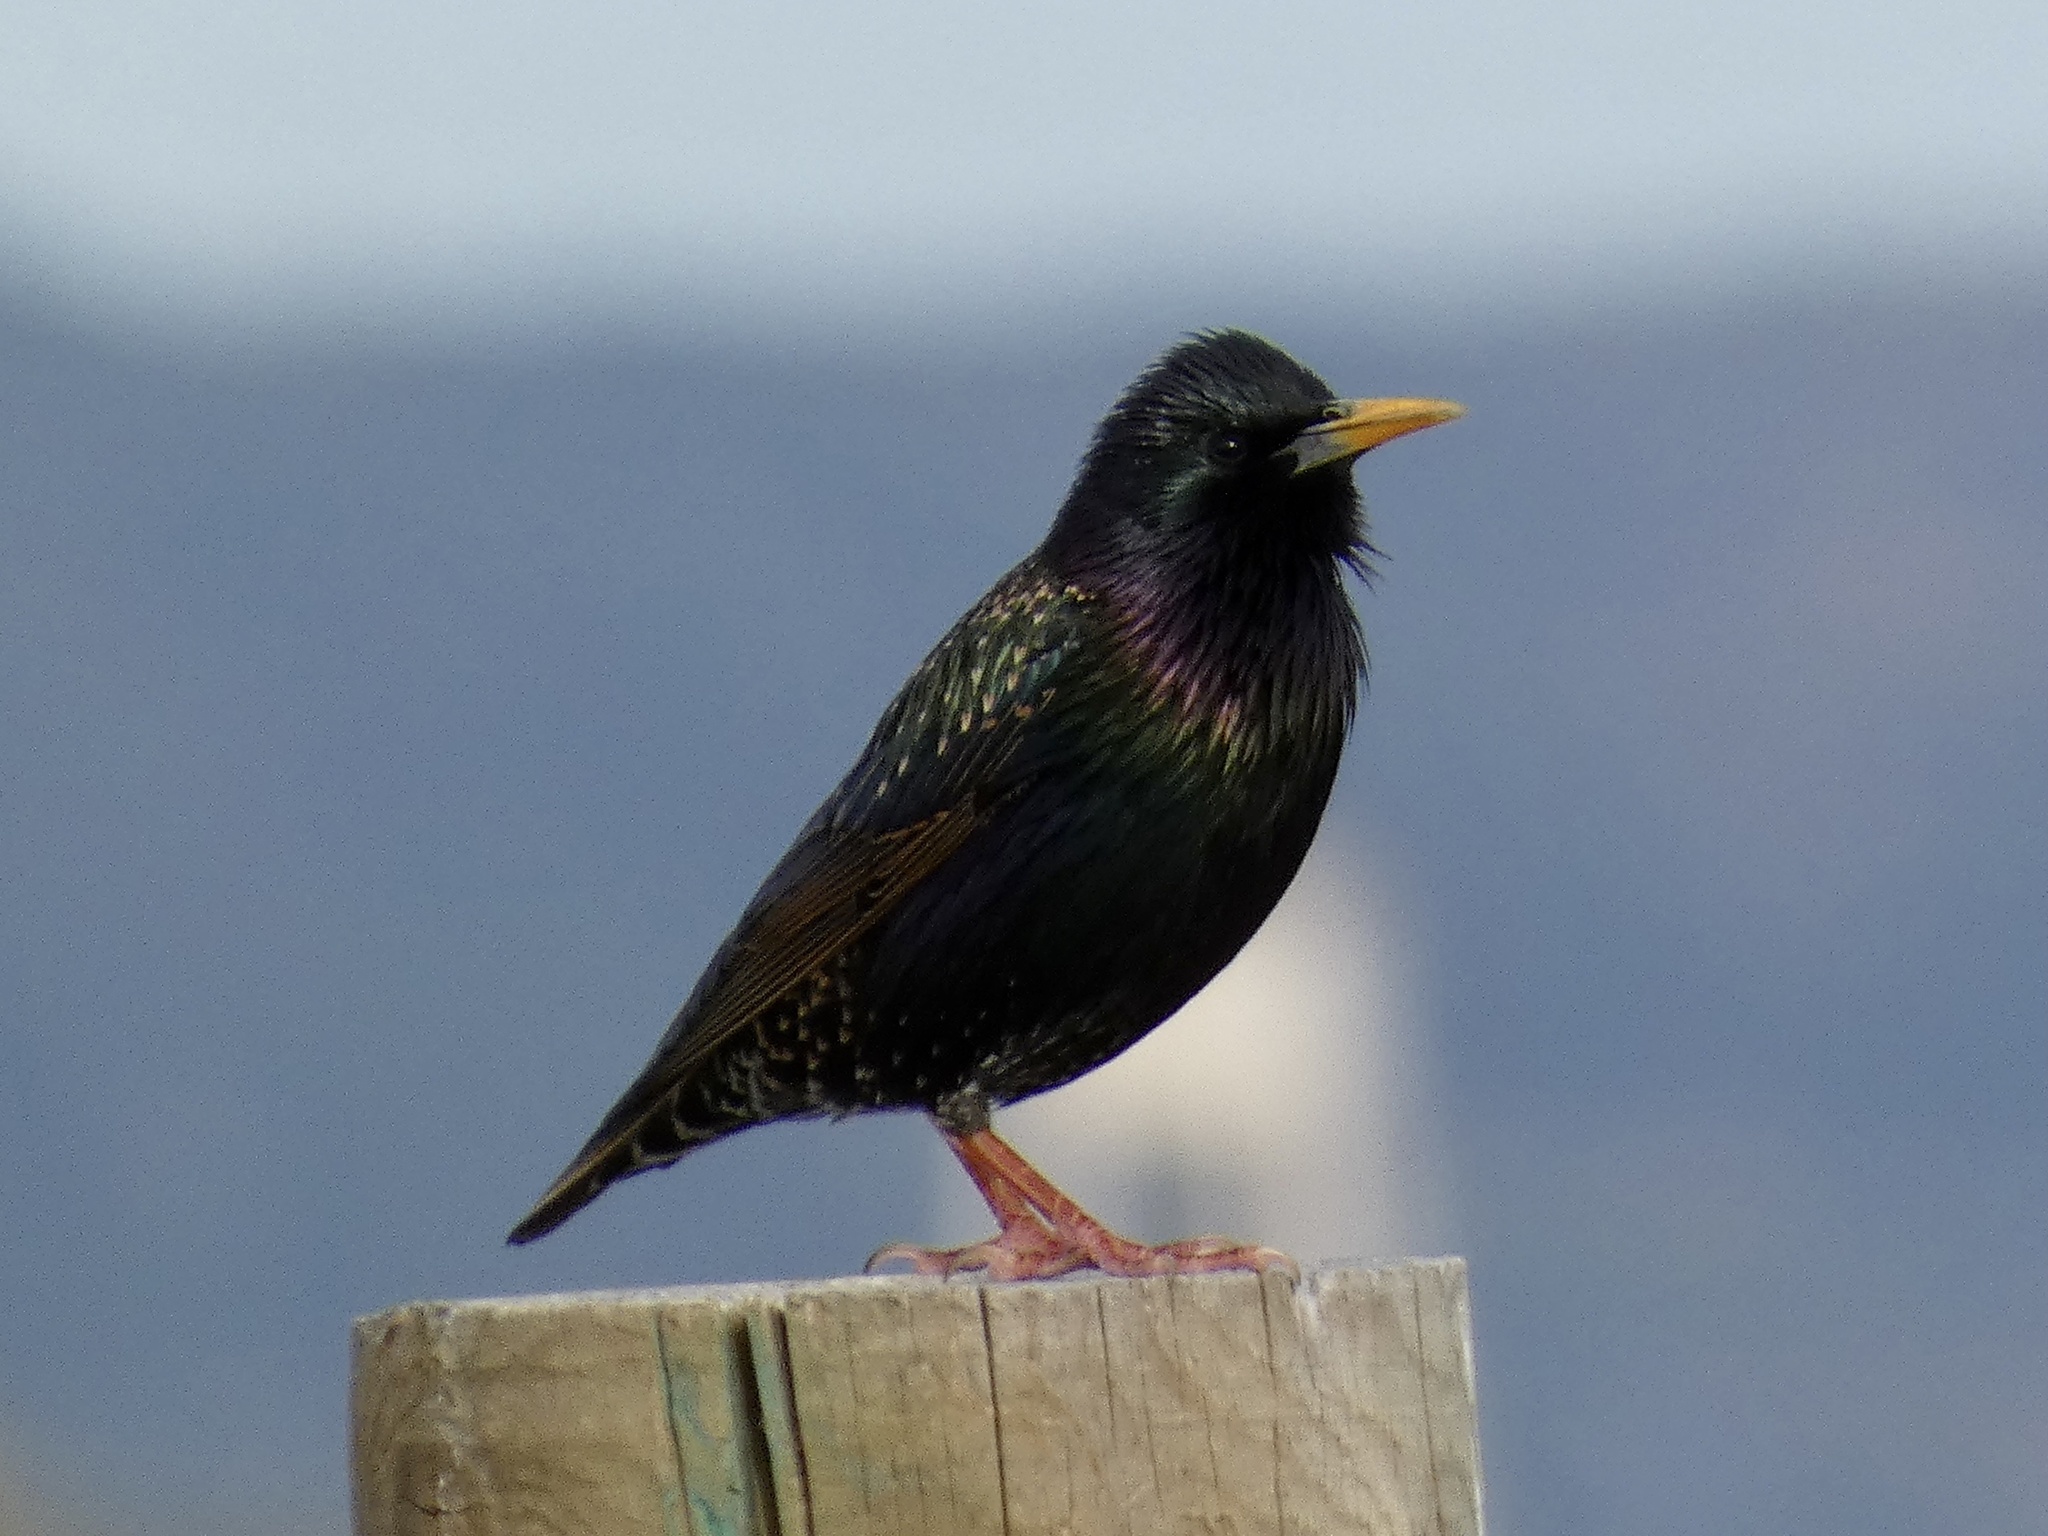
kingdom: Animalia
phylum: Chordata
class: Aves
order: Passeriformes
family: Sturnidae
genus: Sturnus
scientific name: Sturnus vulgaris
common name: Common starling
